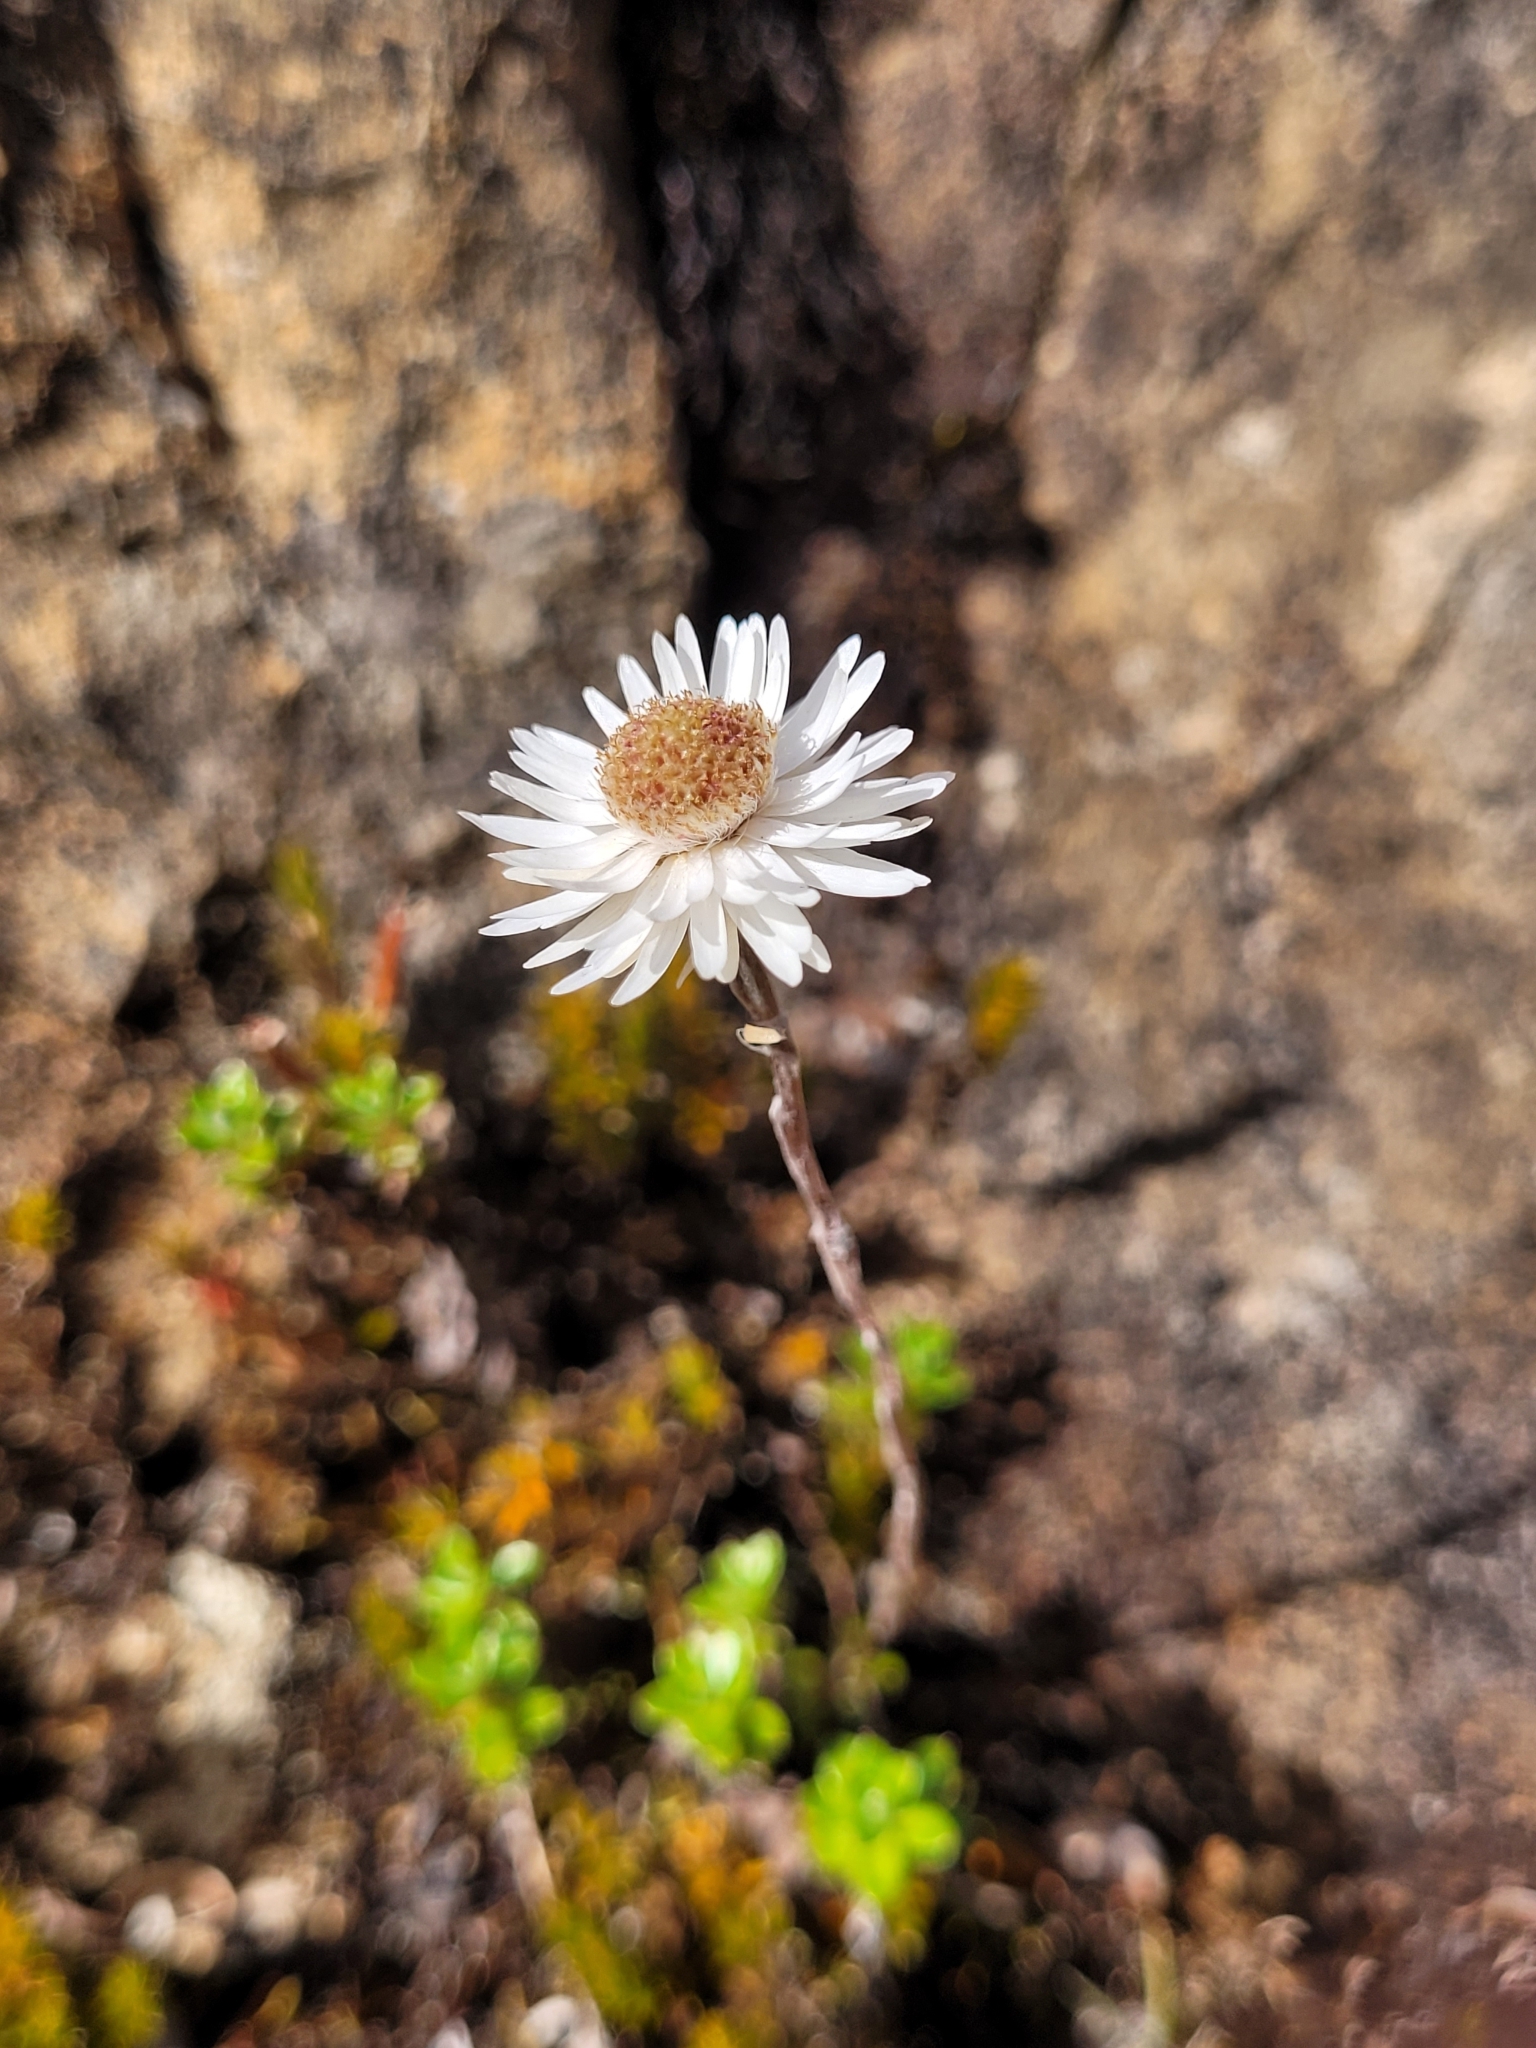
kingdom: Plantae
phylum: Tracheophyta
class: Magnoliopsida
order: Asterales
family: Asteraceae
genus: Anaphalioides
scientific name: Anaphalioides bellidioides
